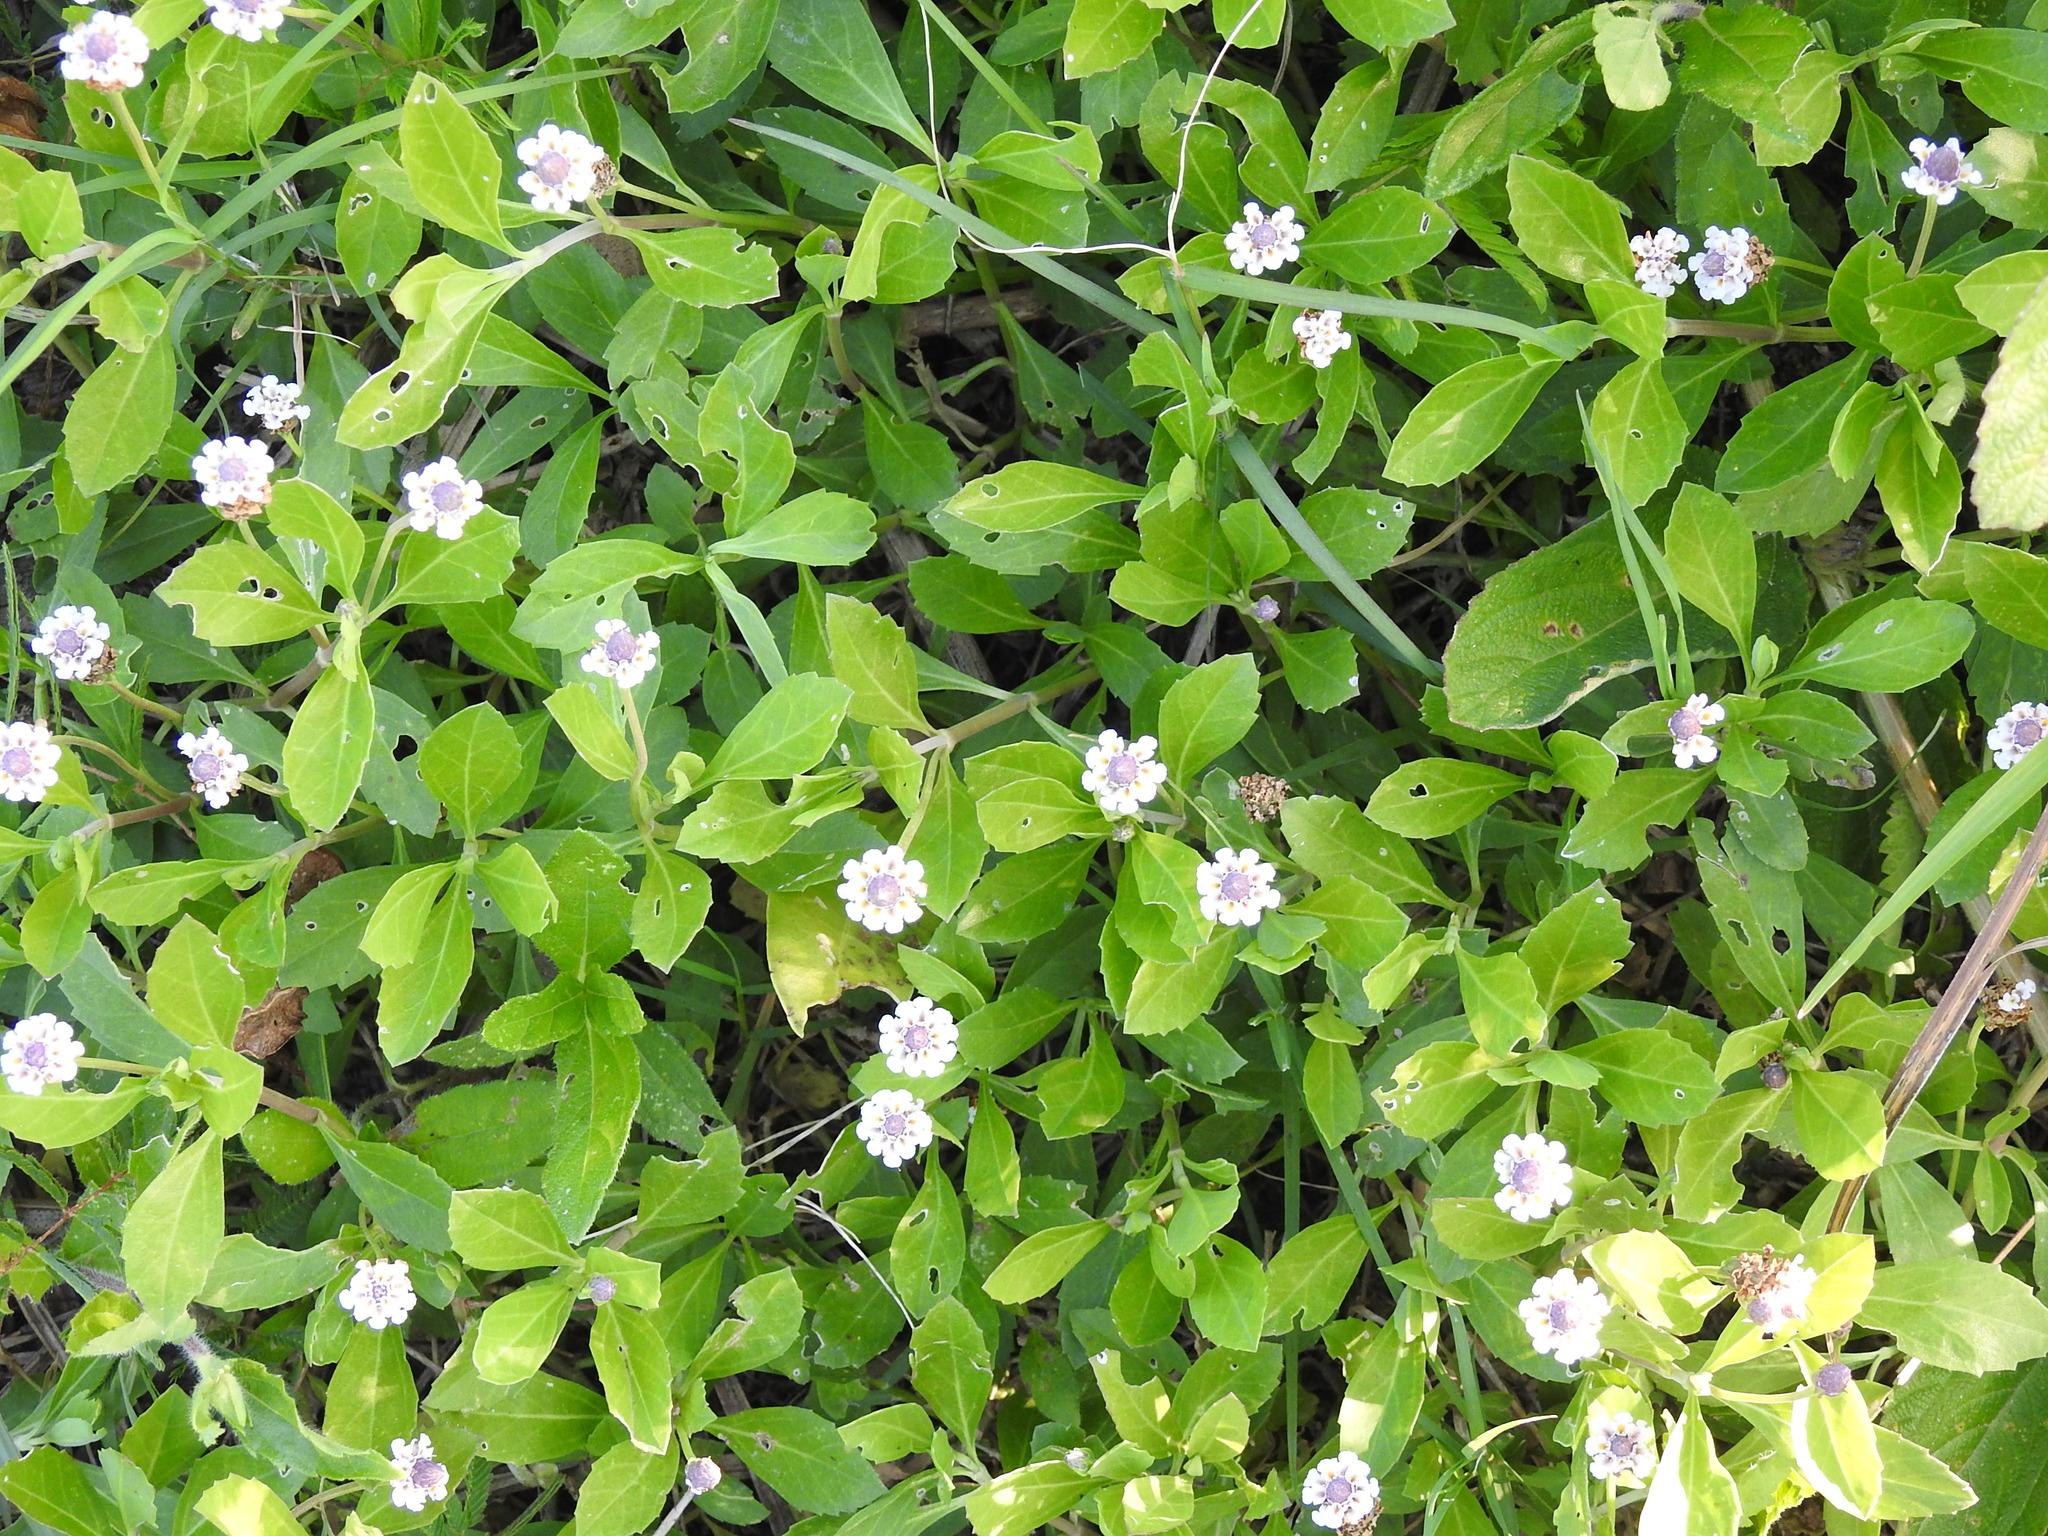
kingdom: Plantae
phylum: Tracheophyta
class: Magnoliopsida
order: Lamiales
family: Verbenaceae
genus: Lippia
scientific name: Lippia alba
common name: Bushy matgrass
